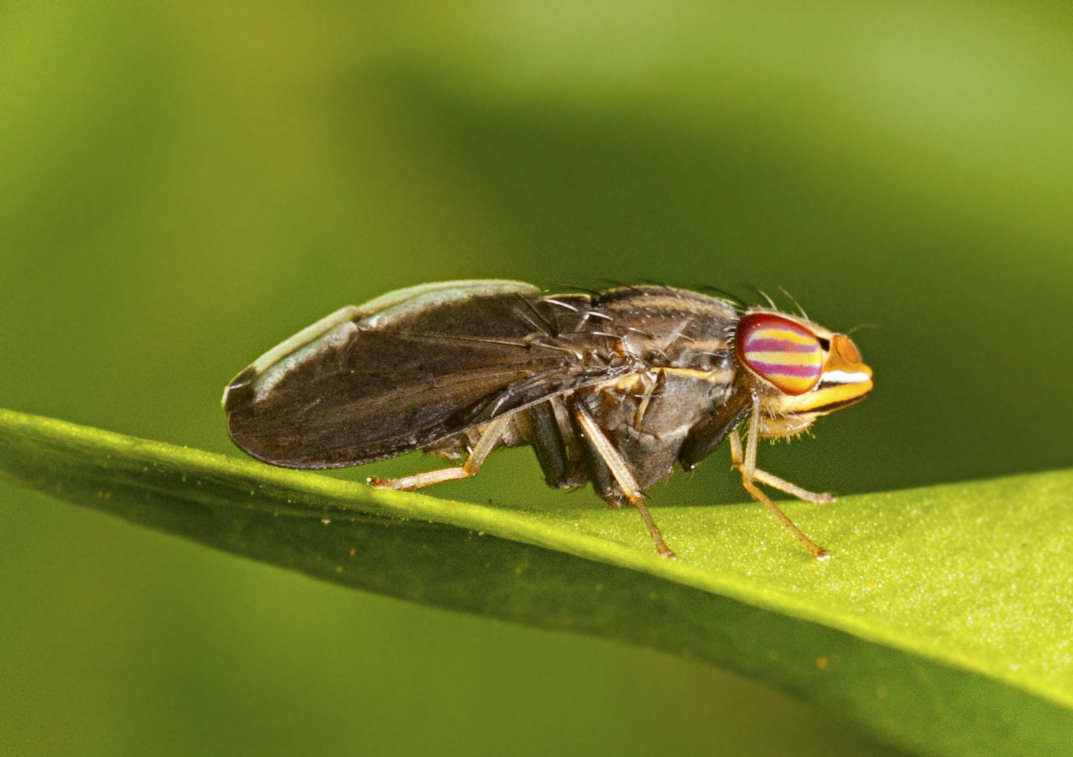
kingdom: Animalia
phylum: Arthropoda
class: Insecta
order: Diptera
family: Lauxaniidae
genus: Cephaloconus
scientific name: Cephaloconus cyprinus
